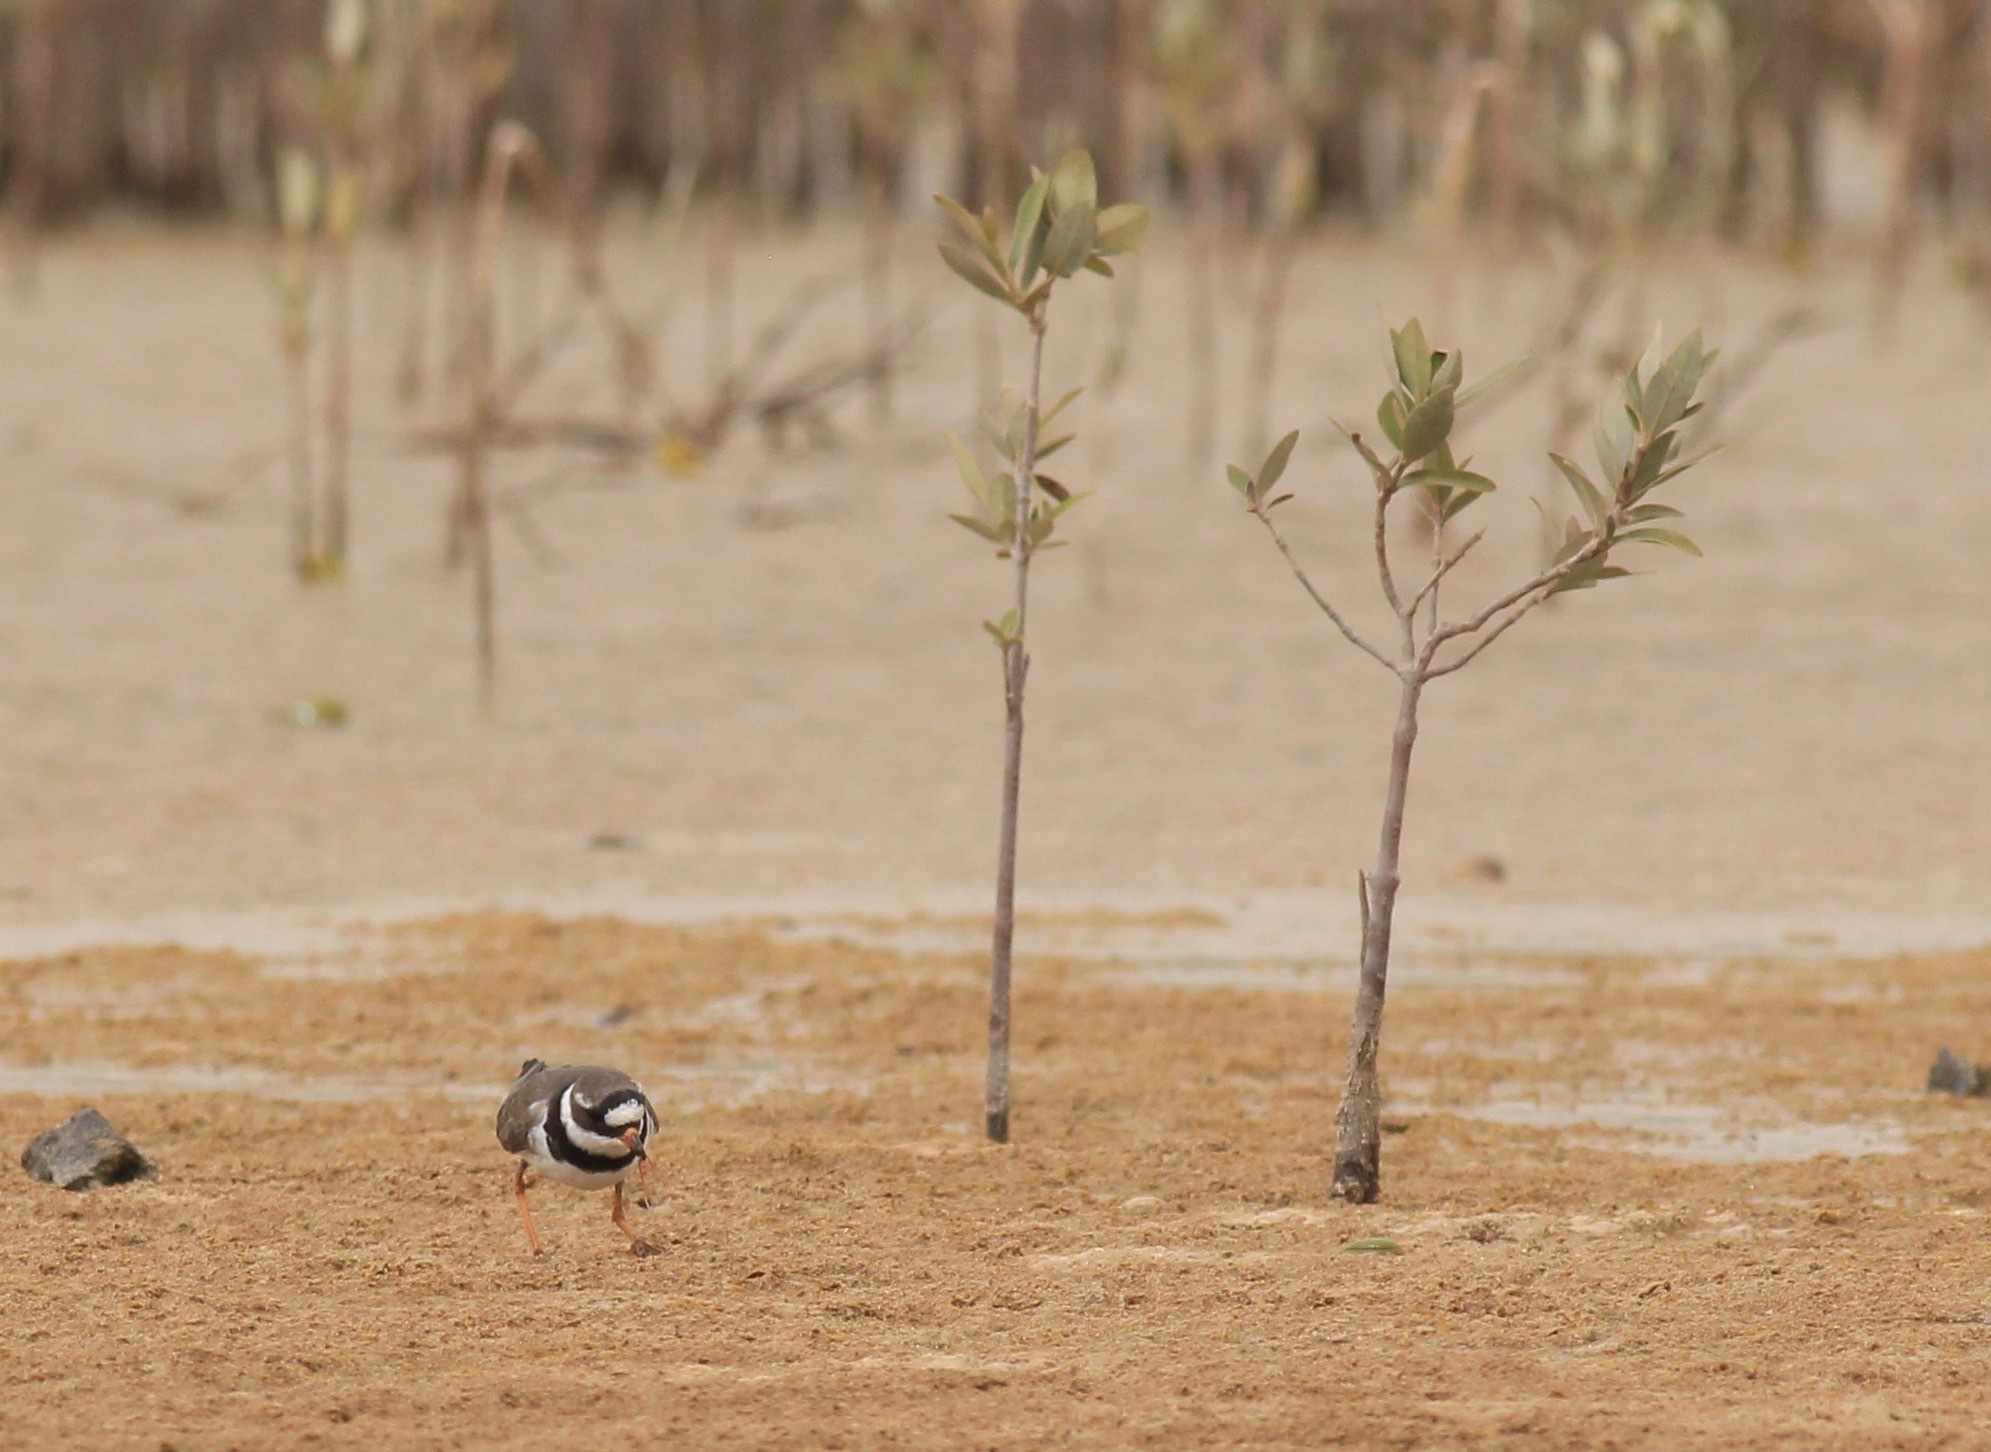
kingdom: Animalia
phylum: Chordata
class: Aves
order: Charadriiformes
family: Charadriidae
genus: Charadrius
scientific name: Charadrius hiaticula
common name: Common ringed plover
